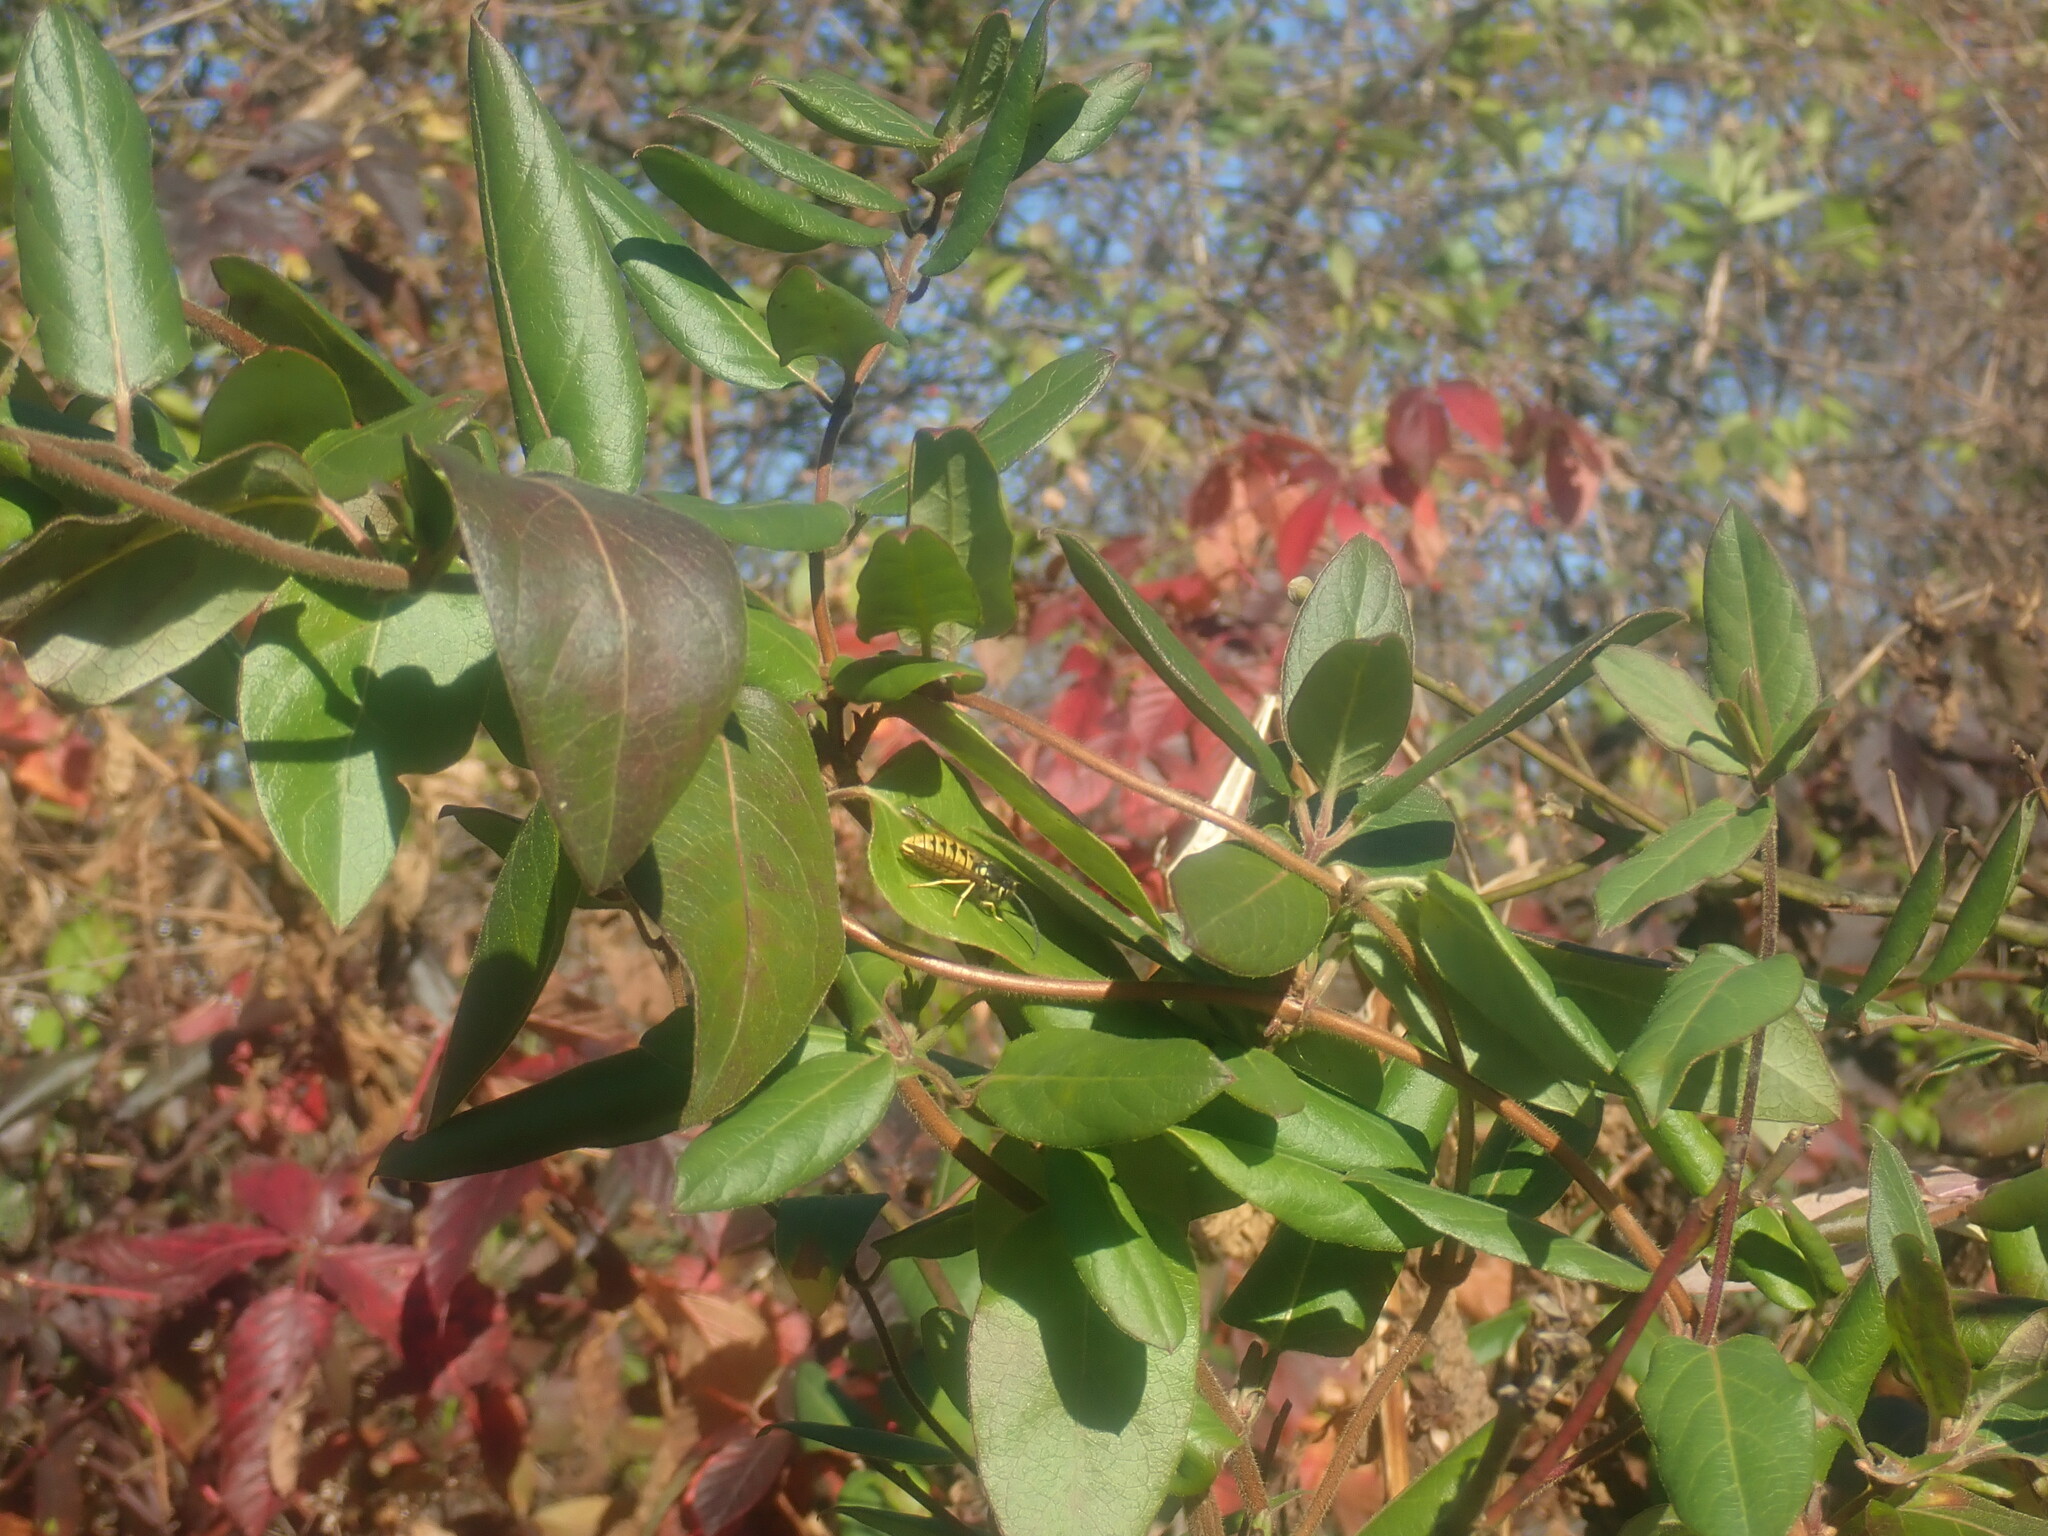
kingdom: Plantae
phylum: Tracheophyta
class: Magnoliopsida
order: Dipsacales
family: Caprifoliaceae
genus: Lonicera
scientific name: Lonicera japonica
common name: Japanese honeysuckle
